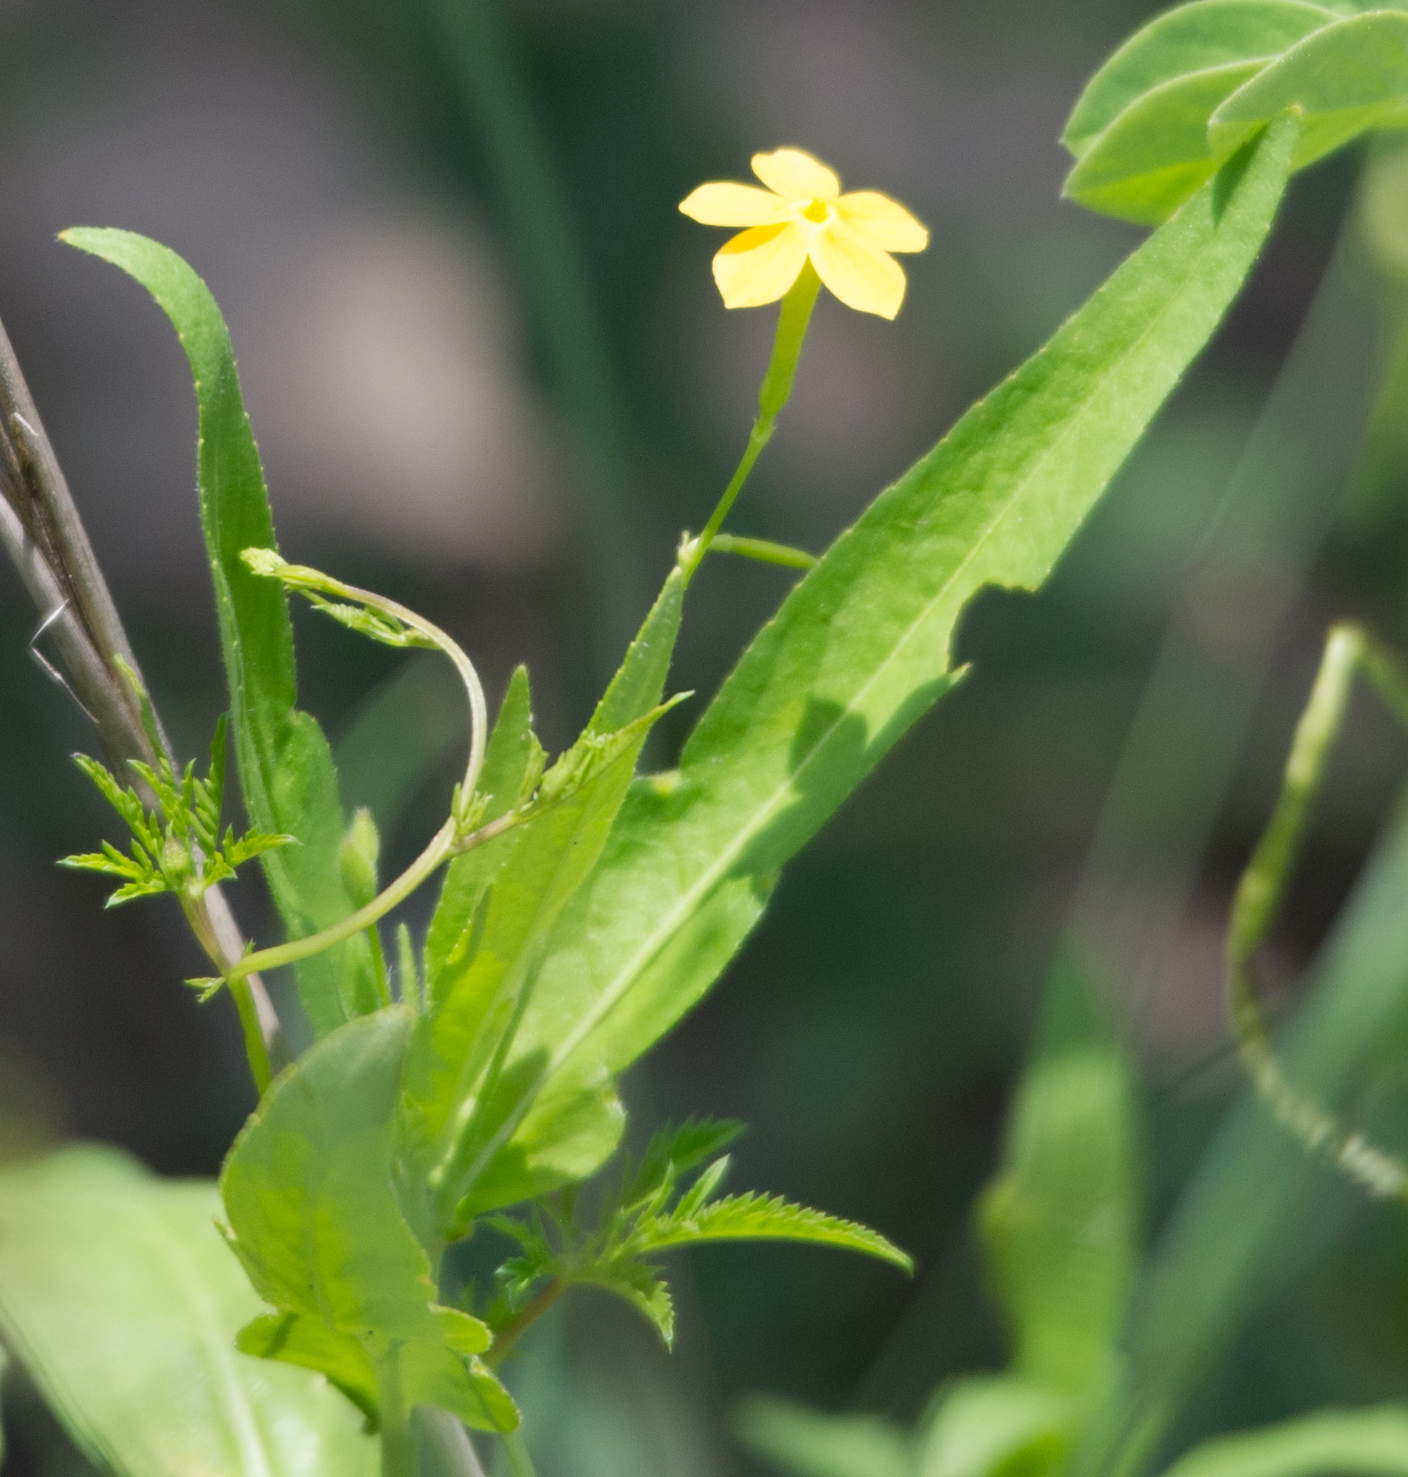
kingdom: Plantae
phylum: Tracheophyta
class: Magnoliopsida
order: Malpighiales
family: Turneraceae
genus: Tricliceras
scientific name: Tricliceras lobatum
